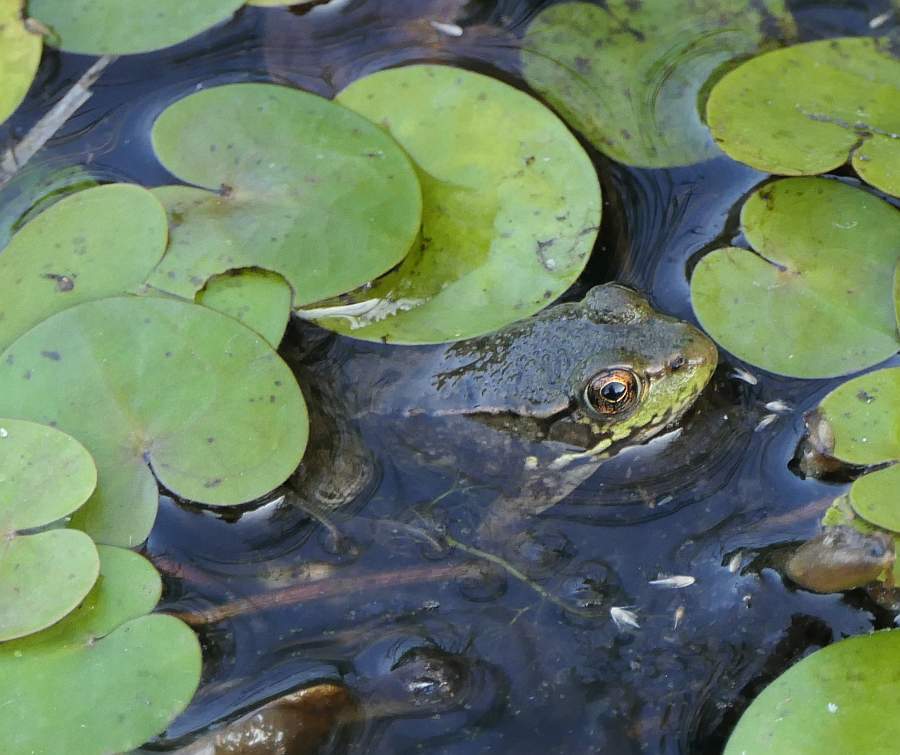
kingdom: Animalia
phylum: Chordata
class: Amphibia
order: Anura
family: Ranidae
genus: Lithobates
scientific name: Lithobates clamitans
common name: Green frog
